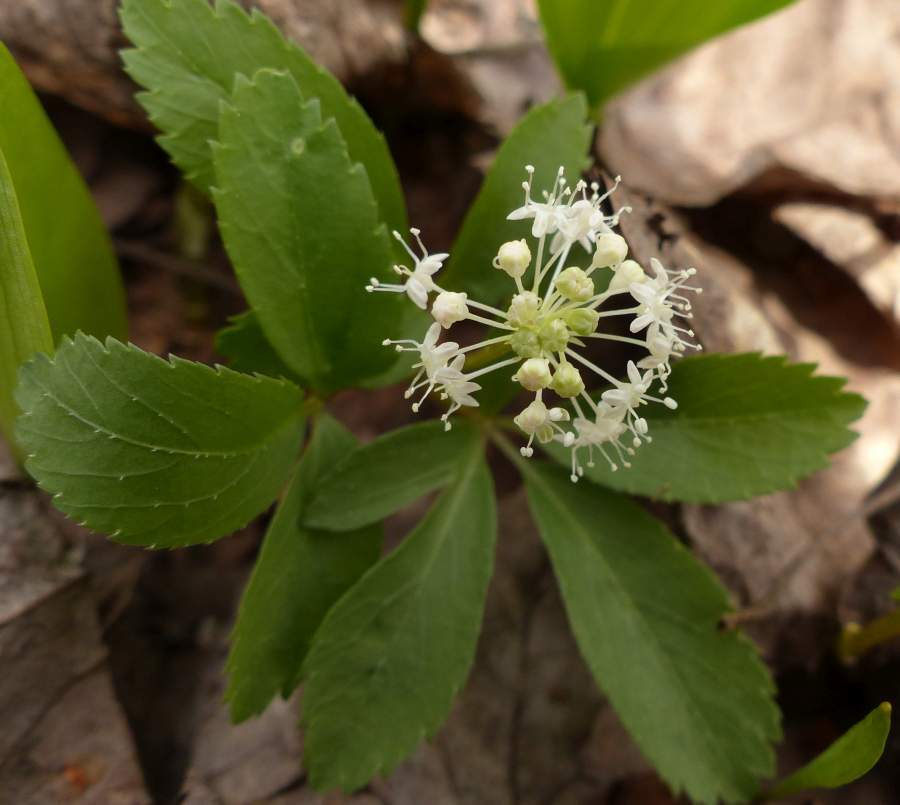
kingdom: Plantae
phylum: Tracheophyta
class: Magnoliopsida
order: Apiales
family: Araliaceae
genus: Panax
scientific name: Panax trifolius
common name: Dwarf ginseng
